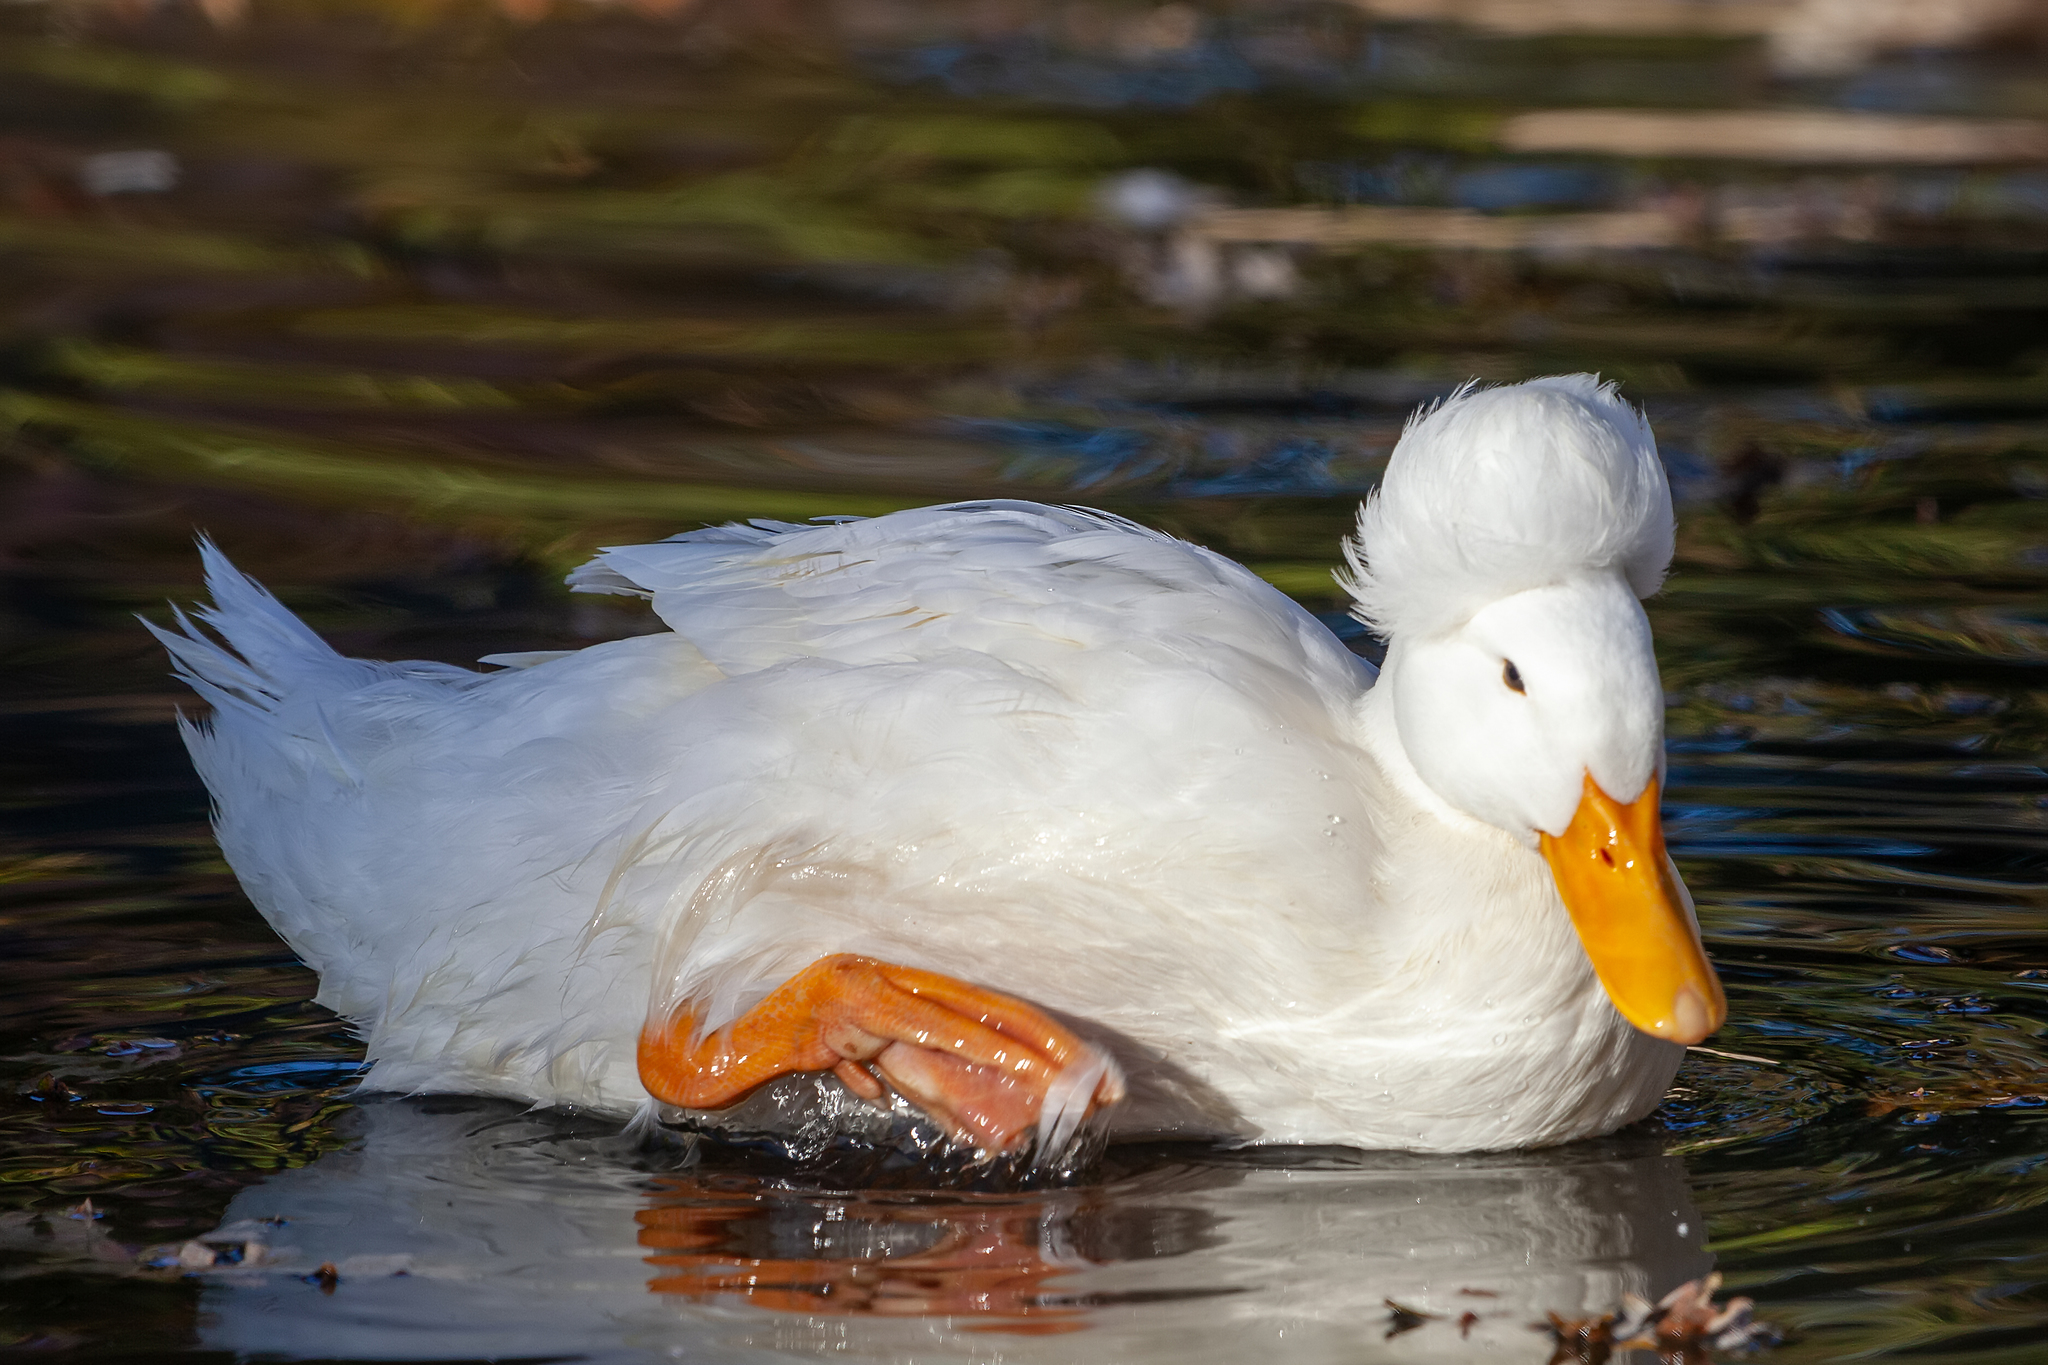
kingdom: Animalia
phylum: Chordata
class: Aves
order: Anseriformes
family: Anatidae
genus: Anas
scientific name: Anas platyrhynchos
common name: Mallard
